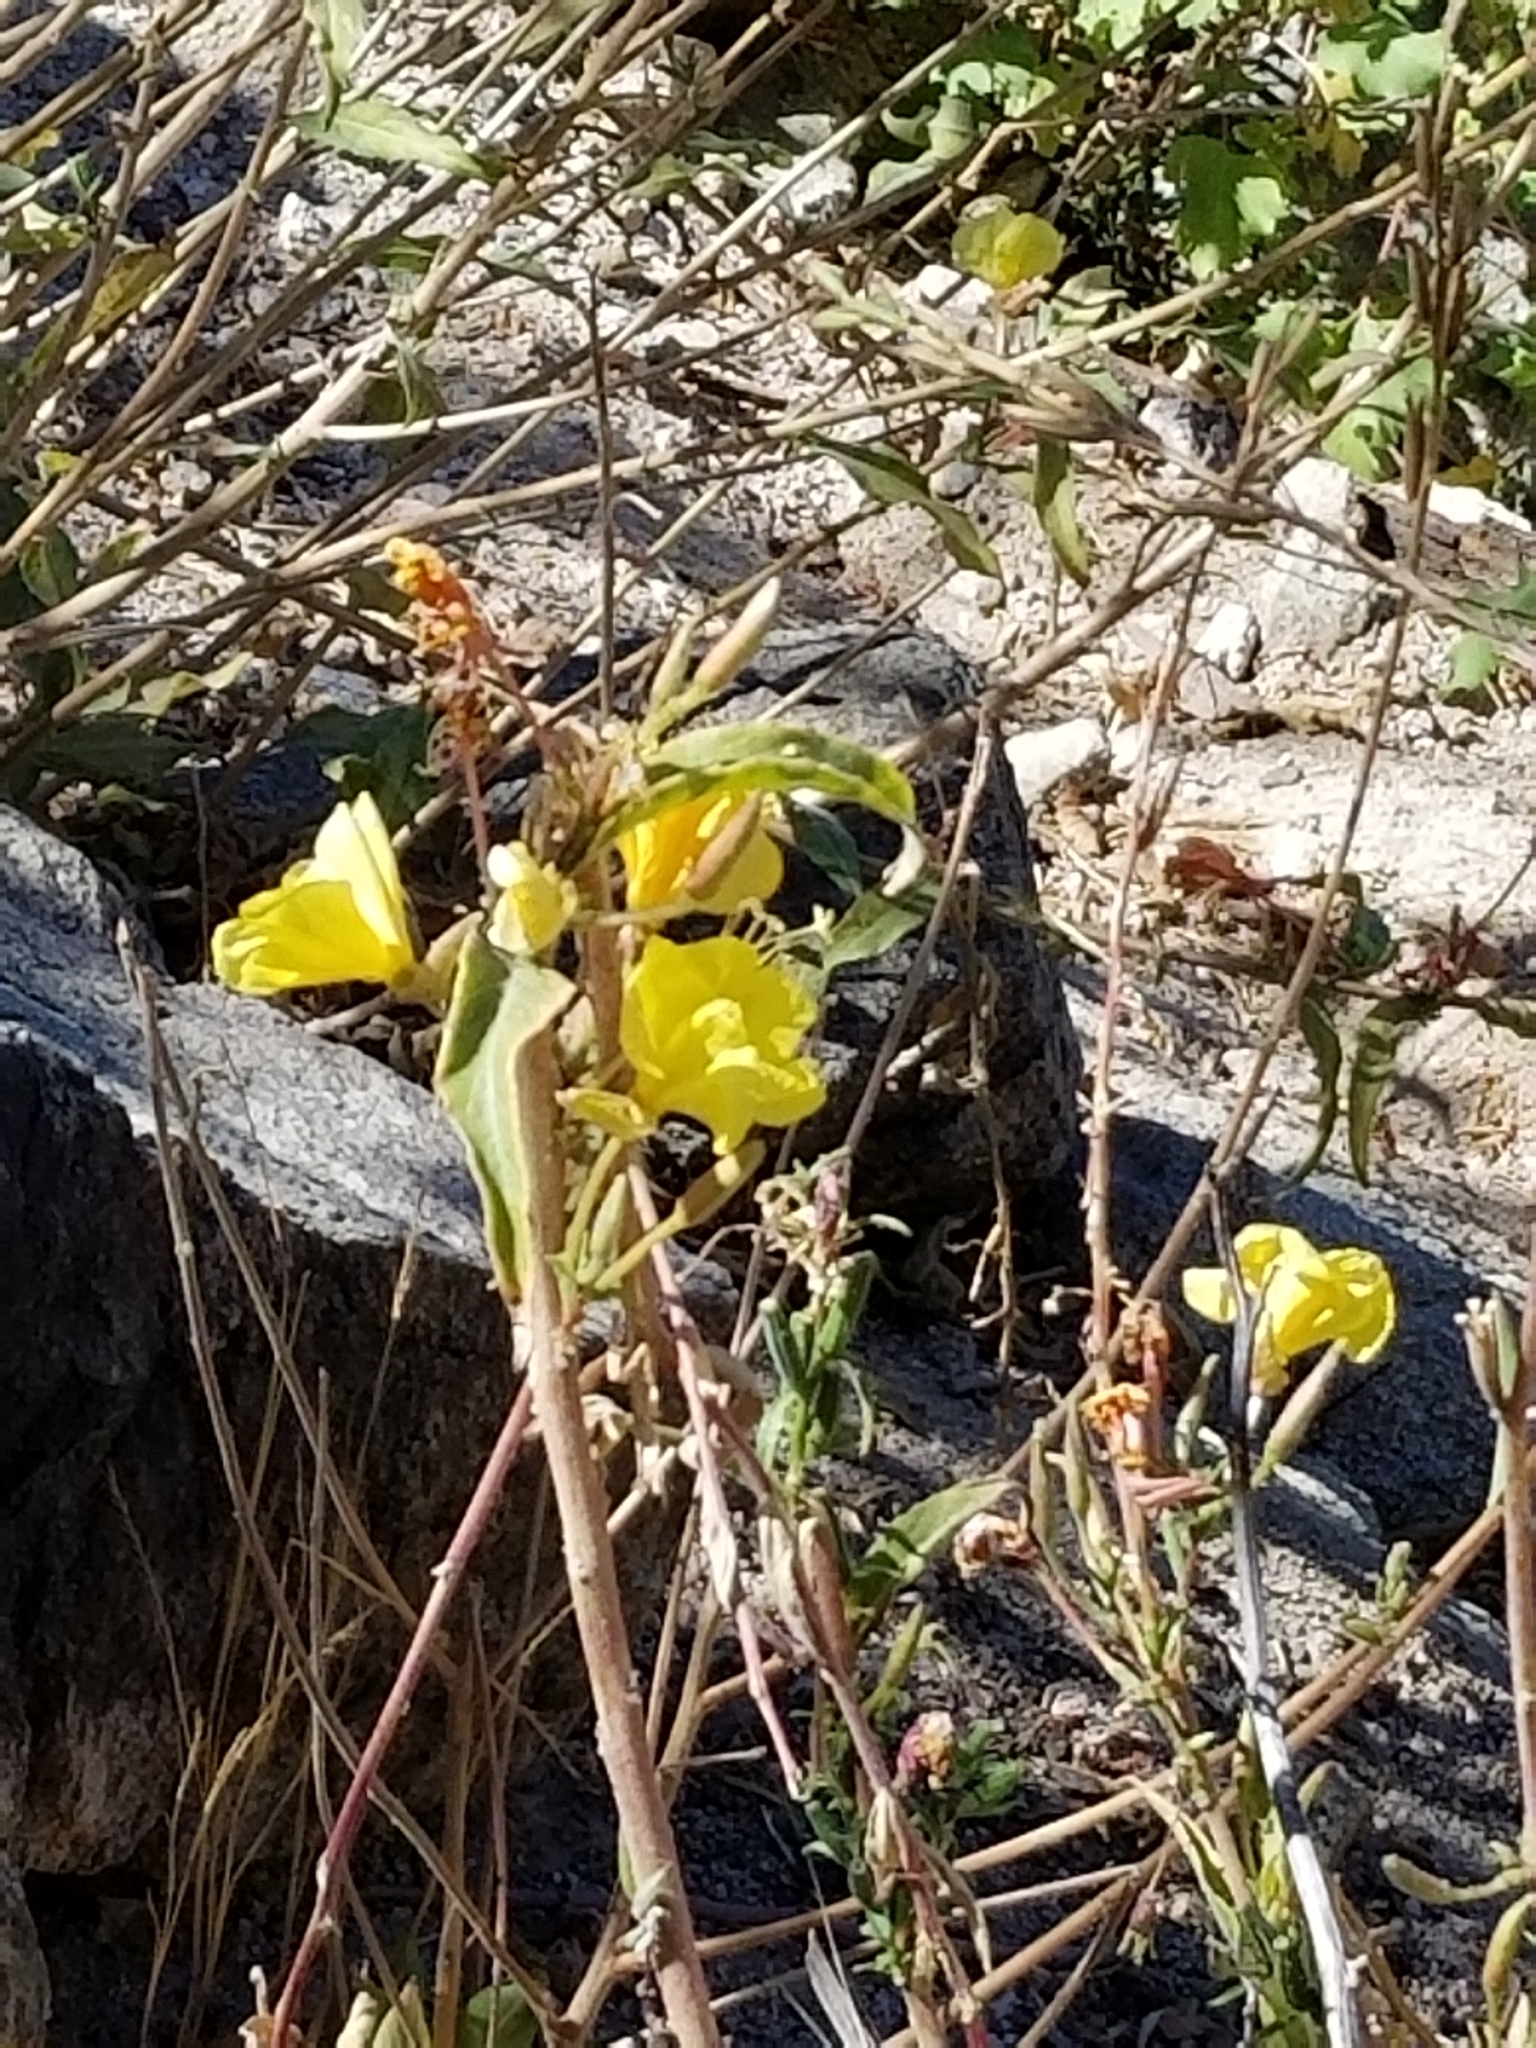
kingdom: Plantae
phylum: Tracheophyta
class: Magnoliopsida
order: Myrtales
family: Onagraceae
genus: Oenothera
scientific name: Oenothera biennis
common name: Common evening-primrose
